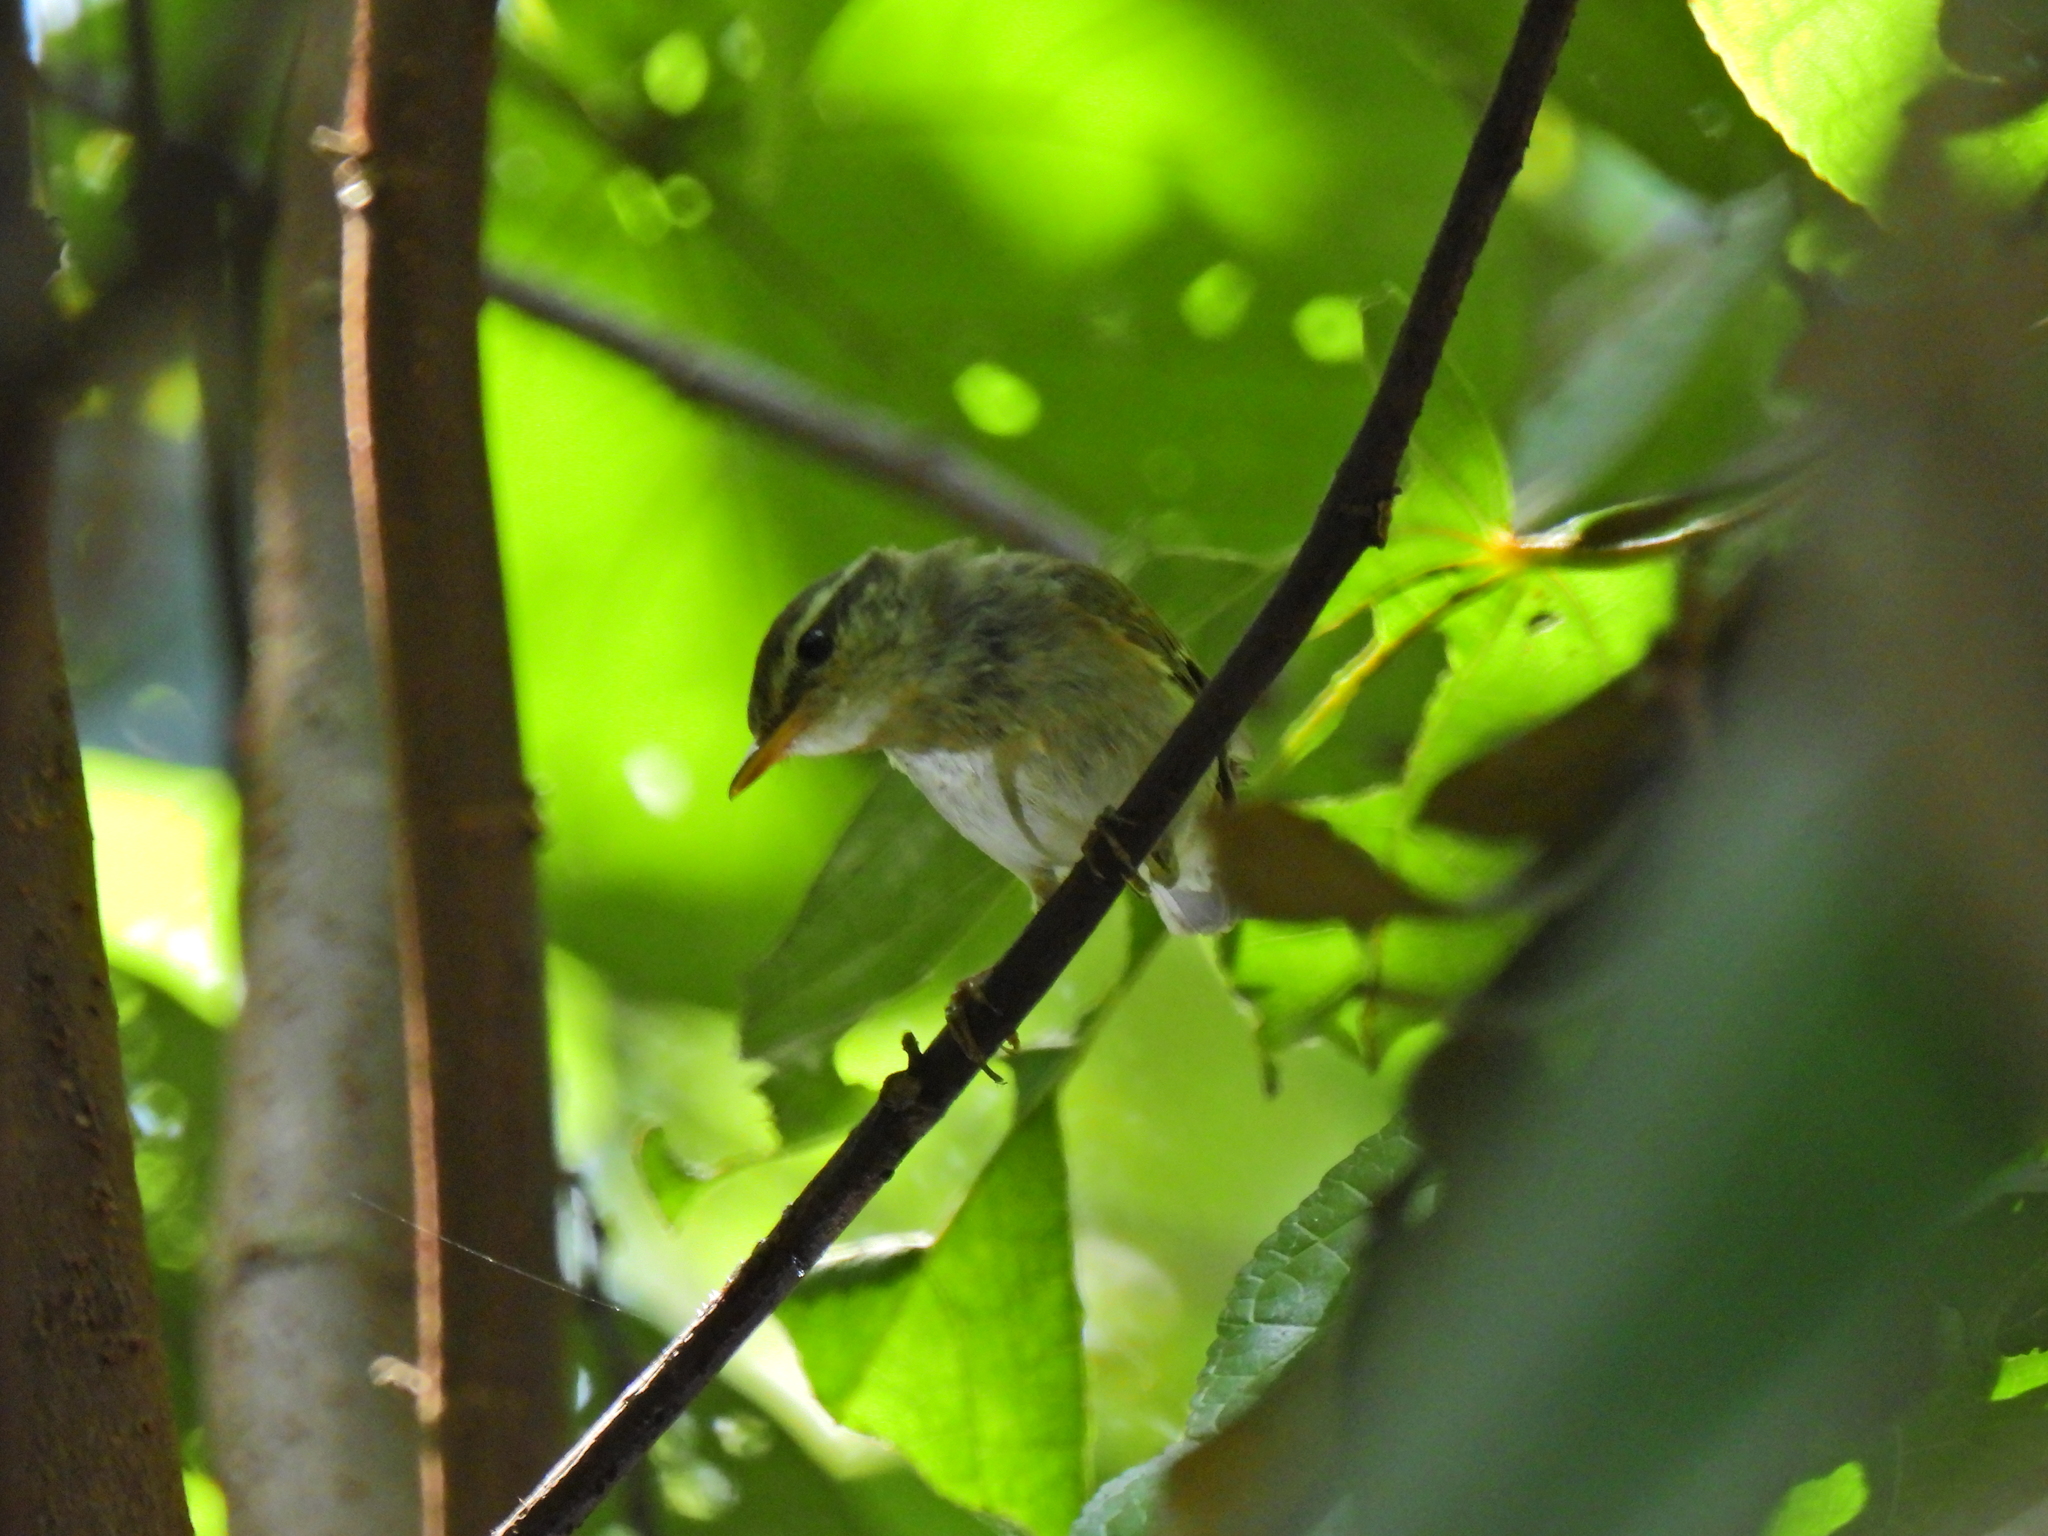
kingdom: Animalia
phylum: Chordata
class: Aves
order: Passeriformes
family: Phylloscopidae
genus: Phylloscopus
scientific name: Phylloscopus borealis
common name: Arctic warbler
